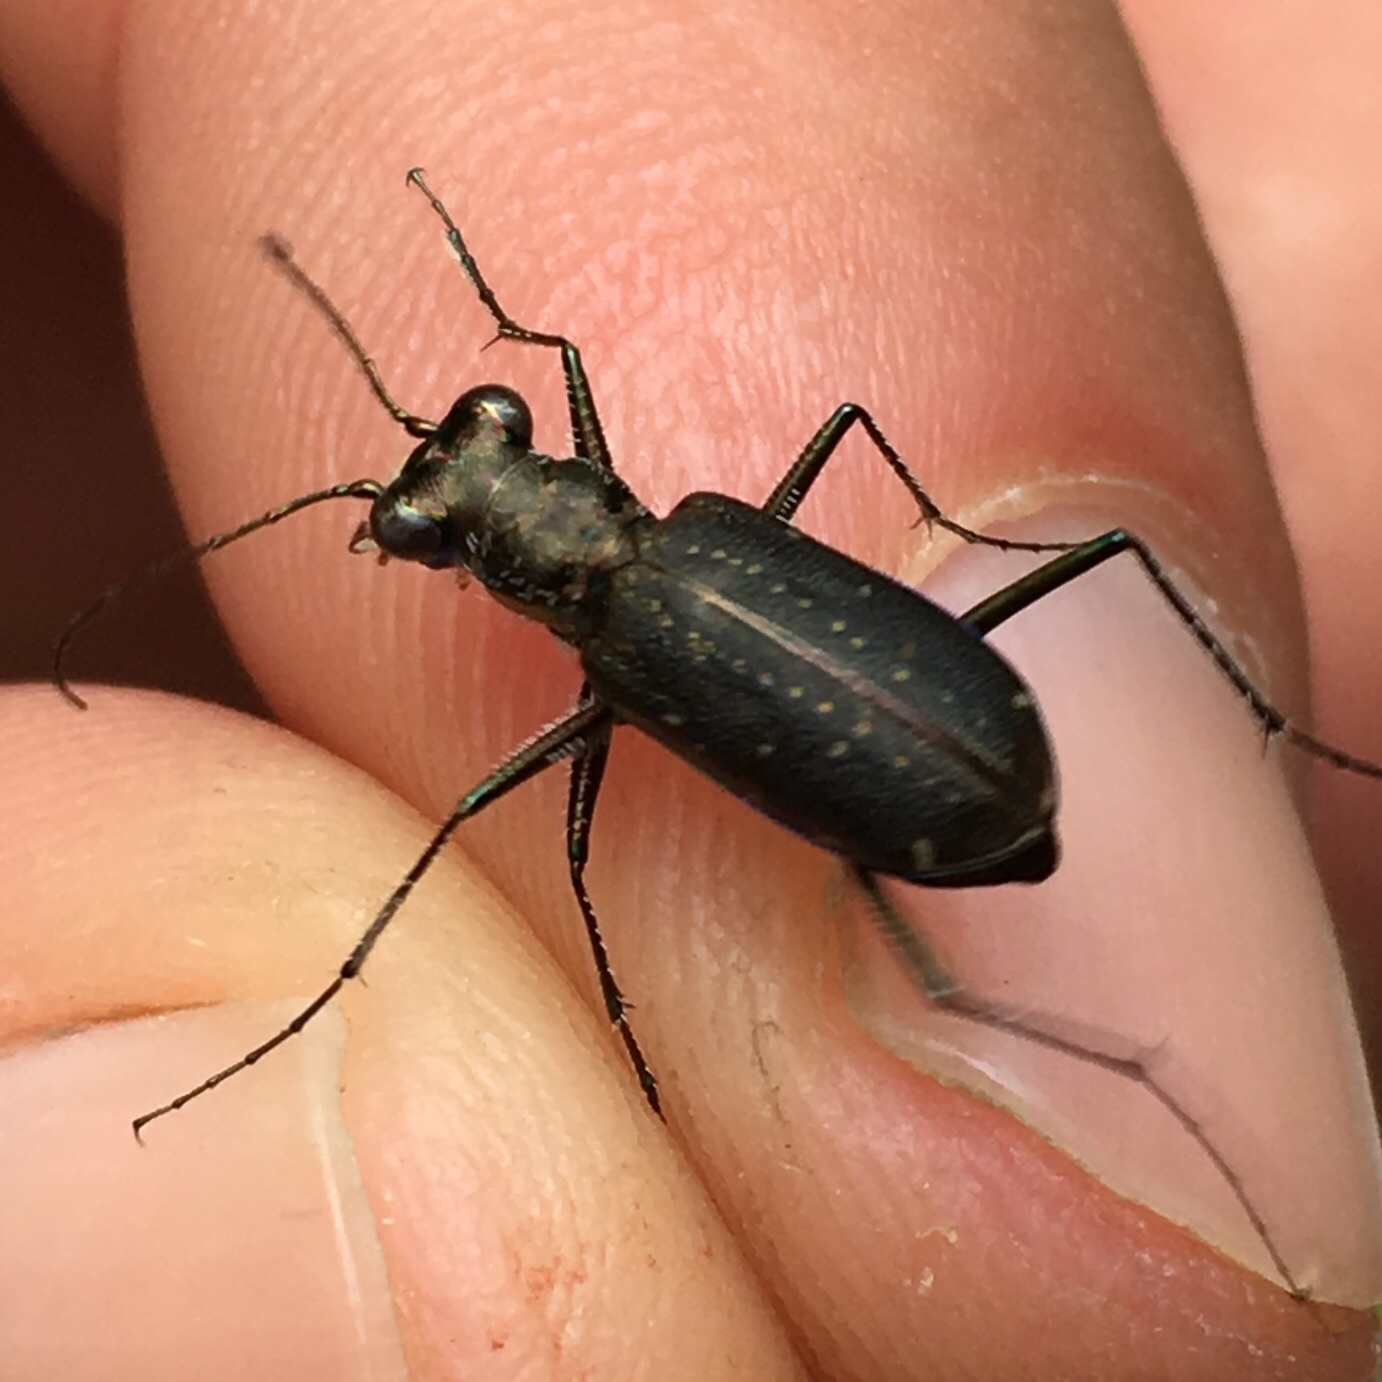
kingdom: Animalia
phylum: Arthropoda
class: Insecta
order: Coleoptera
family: Carabidae
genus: Cicindela
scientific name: Cicindela punctulata
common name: Punctured tiger beetle
